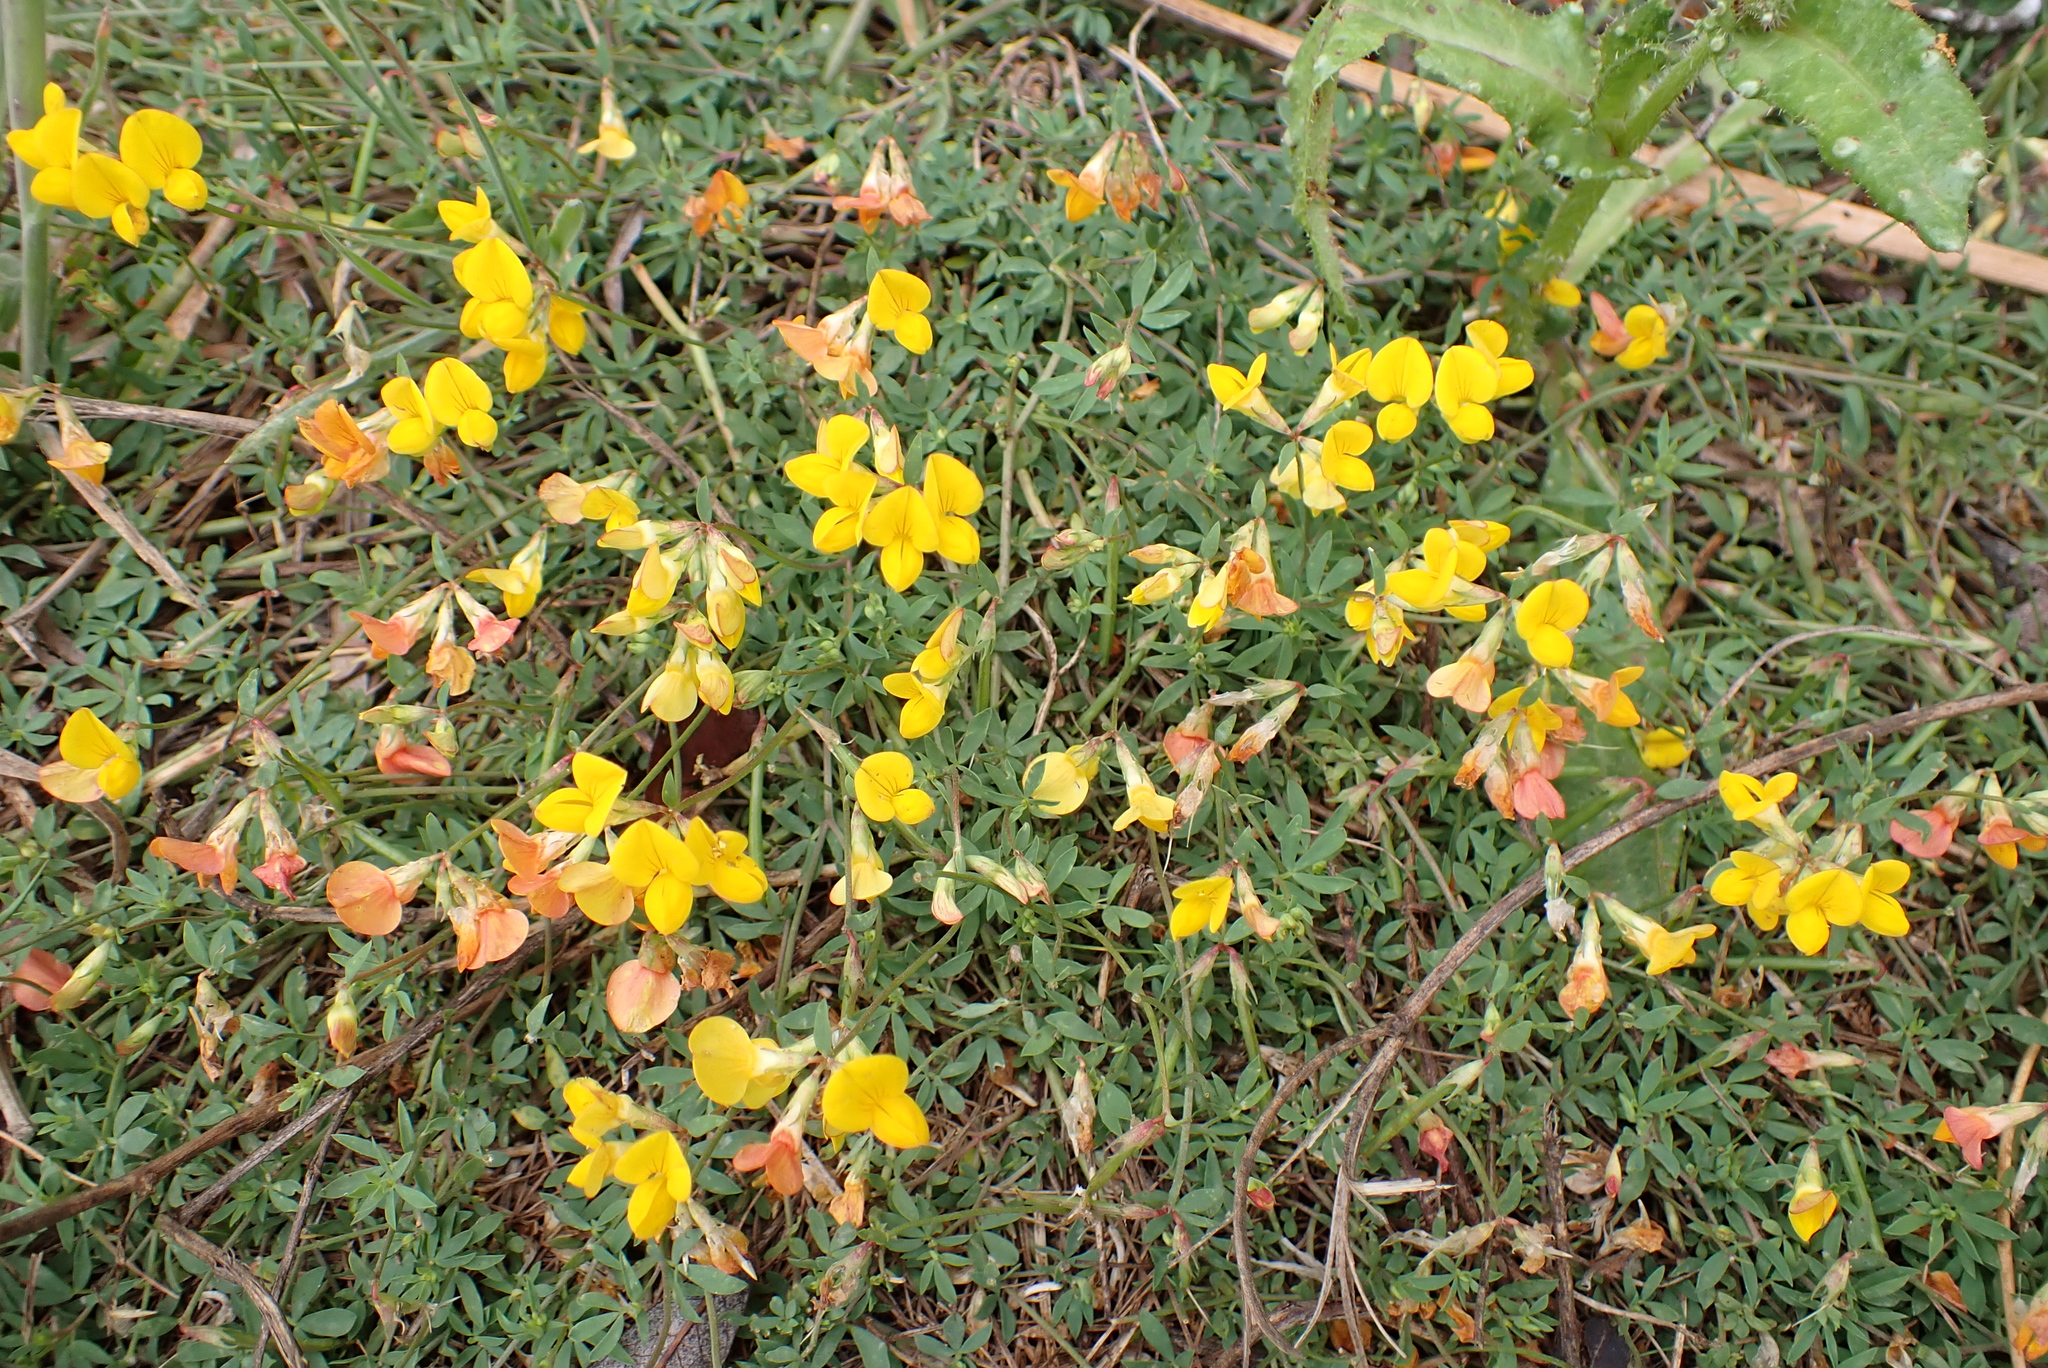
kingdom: Plantae
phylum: Tracheophyta
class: Magnoliopsida
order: Fabales
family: Fabaceae
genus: Lotus
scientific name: Lotus tenuis
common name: Narrow-leaved bird's-foot-trefoil
